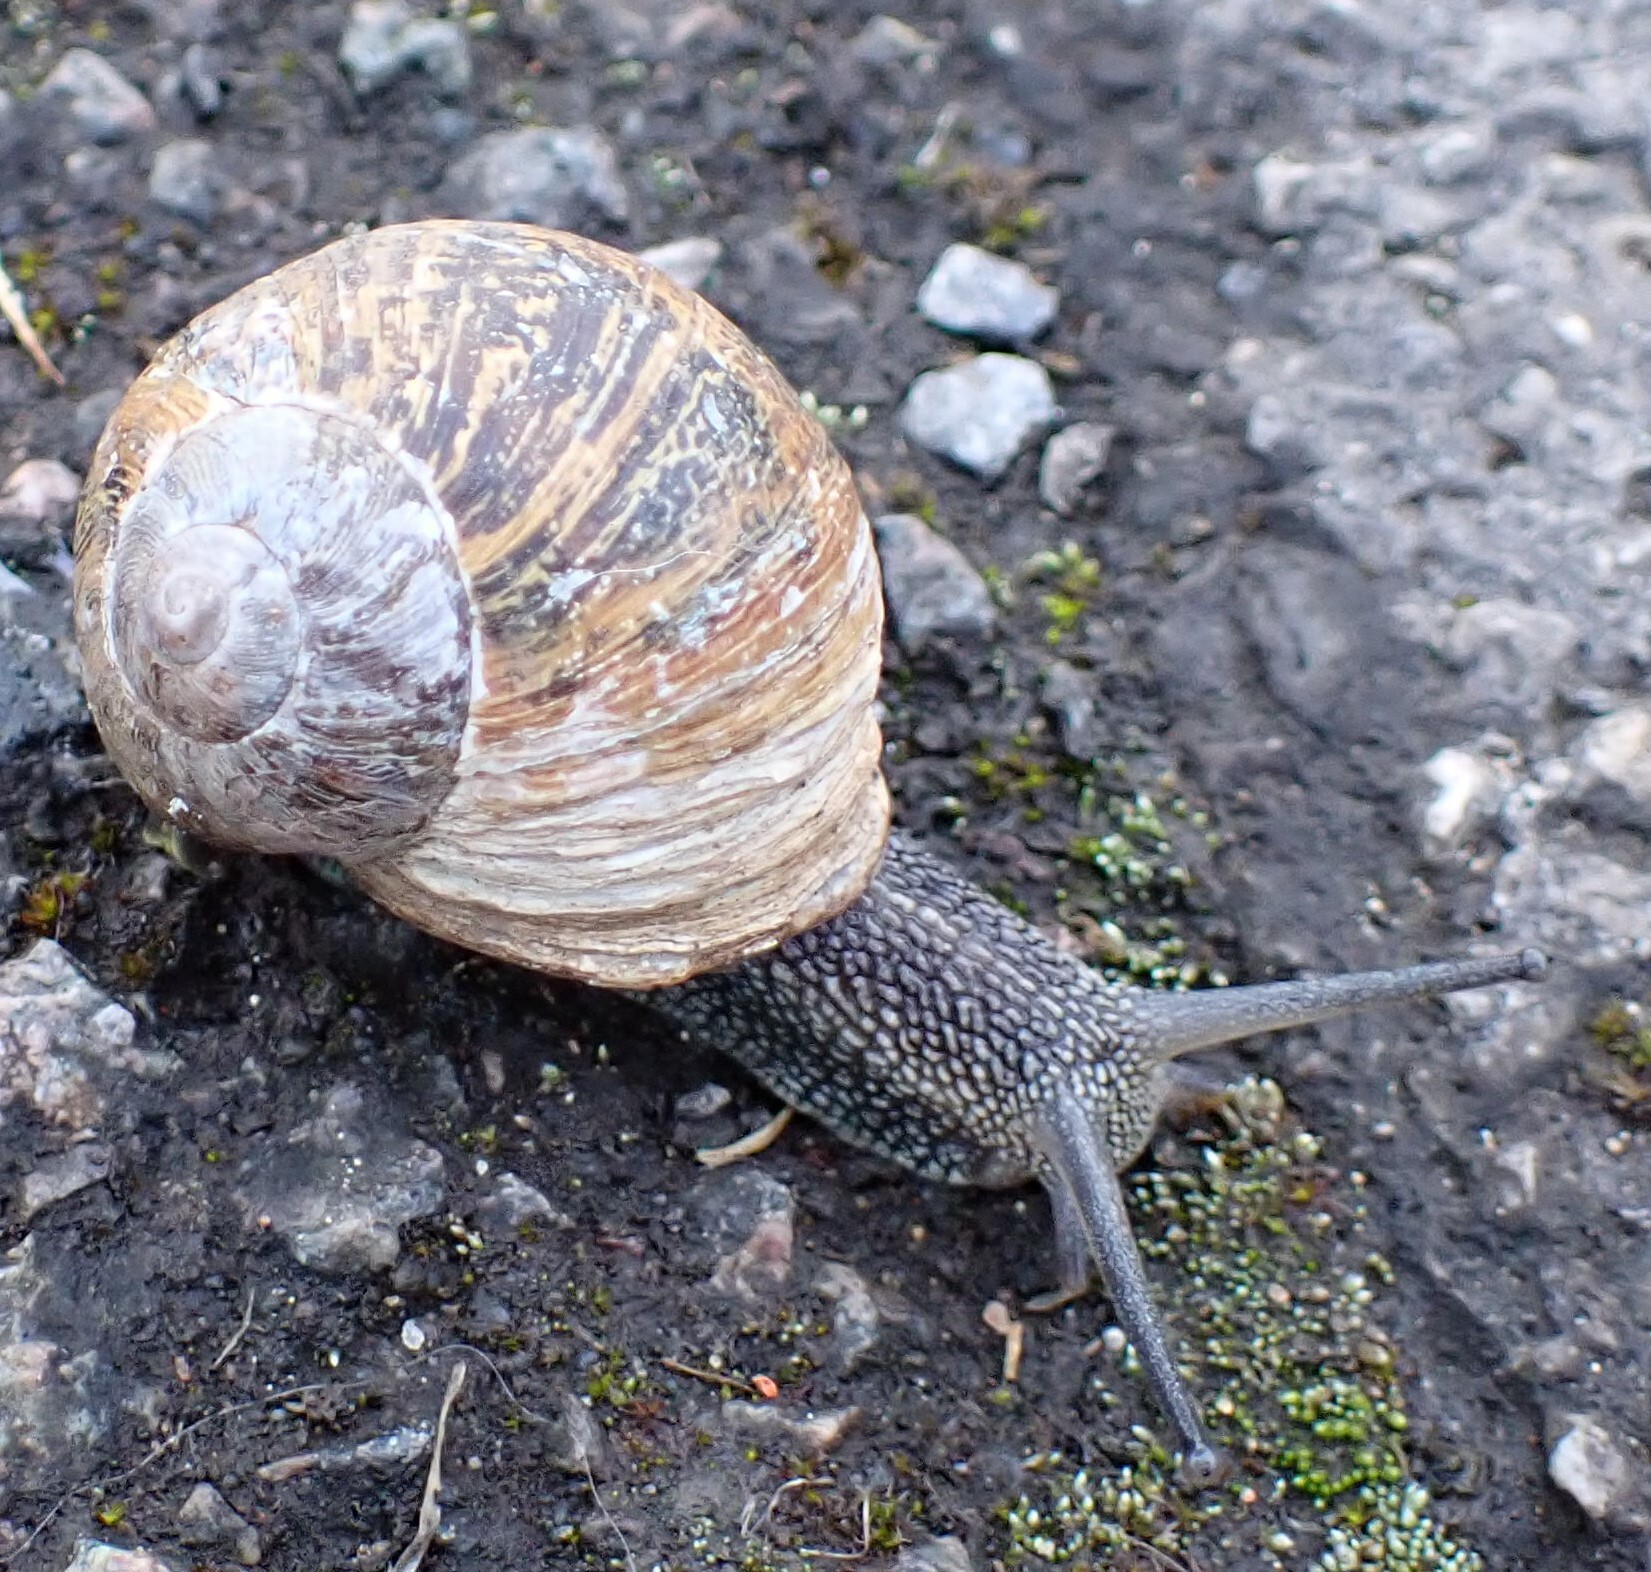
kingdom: Animalia
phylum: Mollusca
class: Gastropoda
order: Stylommatophora
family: Helicidae
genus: Cornu
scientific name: Cornu aspersum
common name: Brown garden snail
